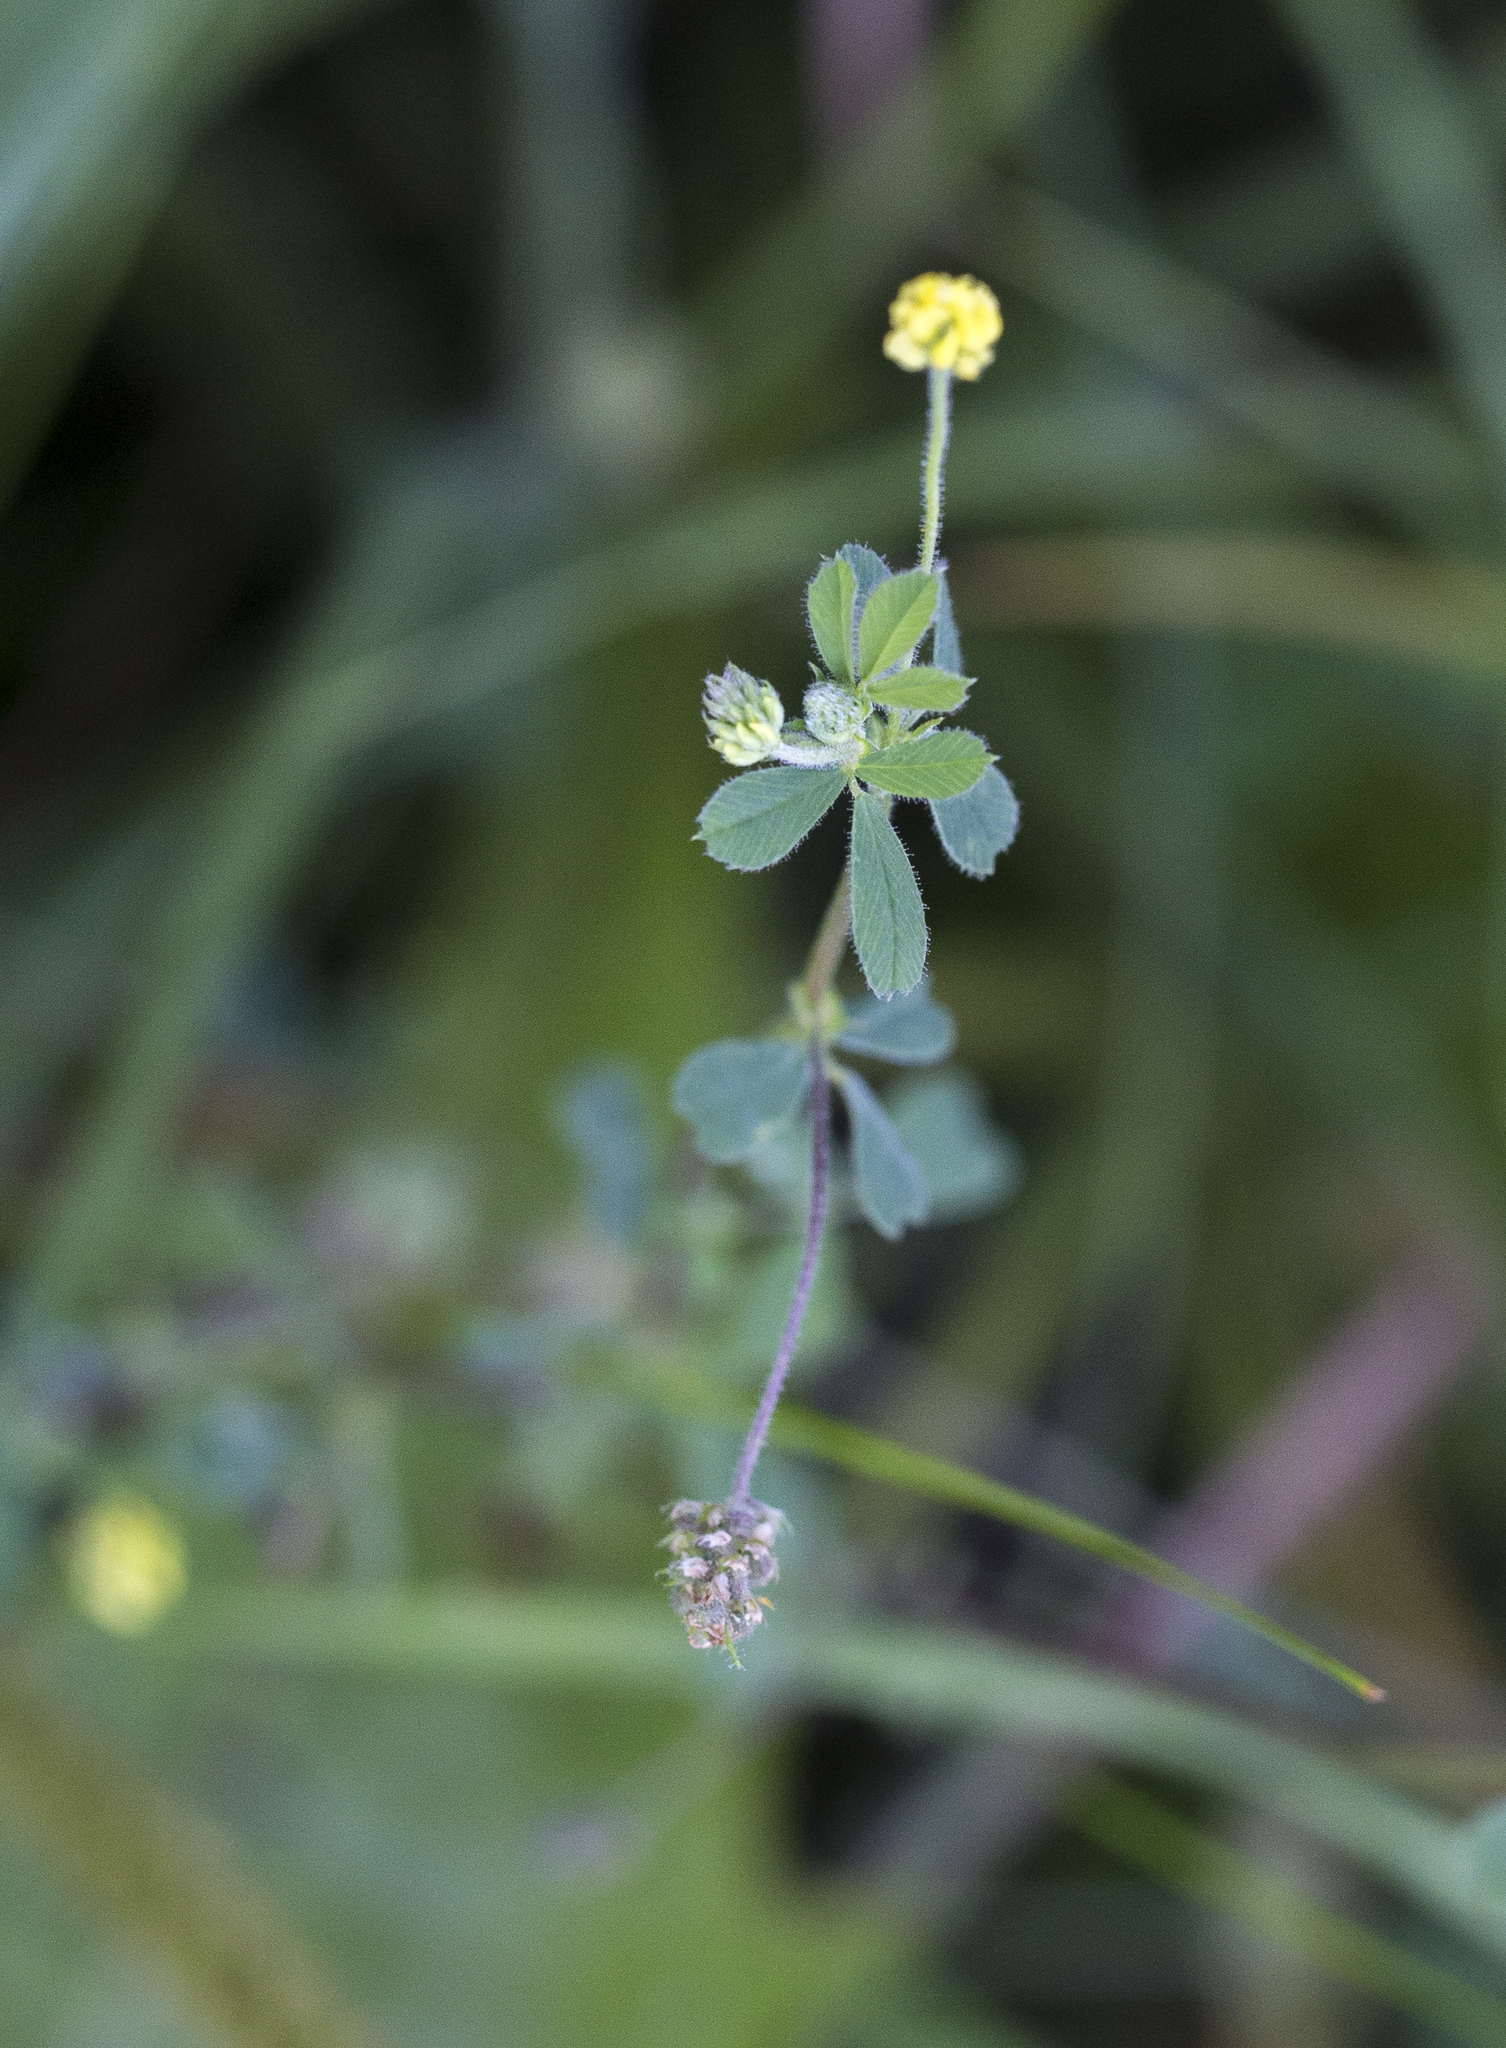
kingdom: Plantae
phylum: Tracheophyta
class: Magnoliopsida
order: Fabales
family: Fabaceae
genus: Medicago
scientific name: Medicago lupulina
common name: Black medick
